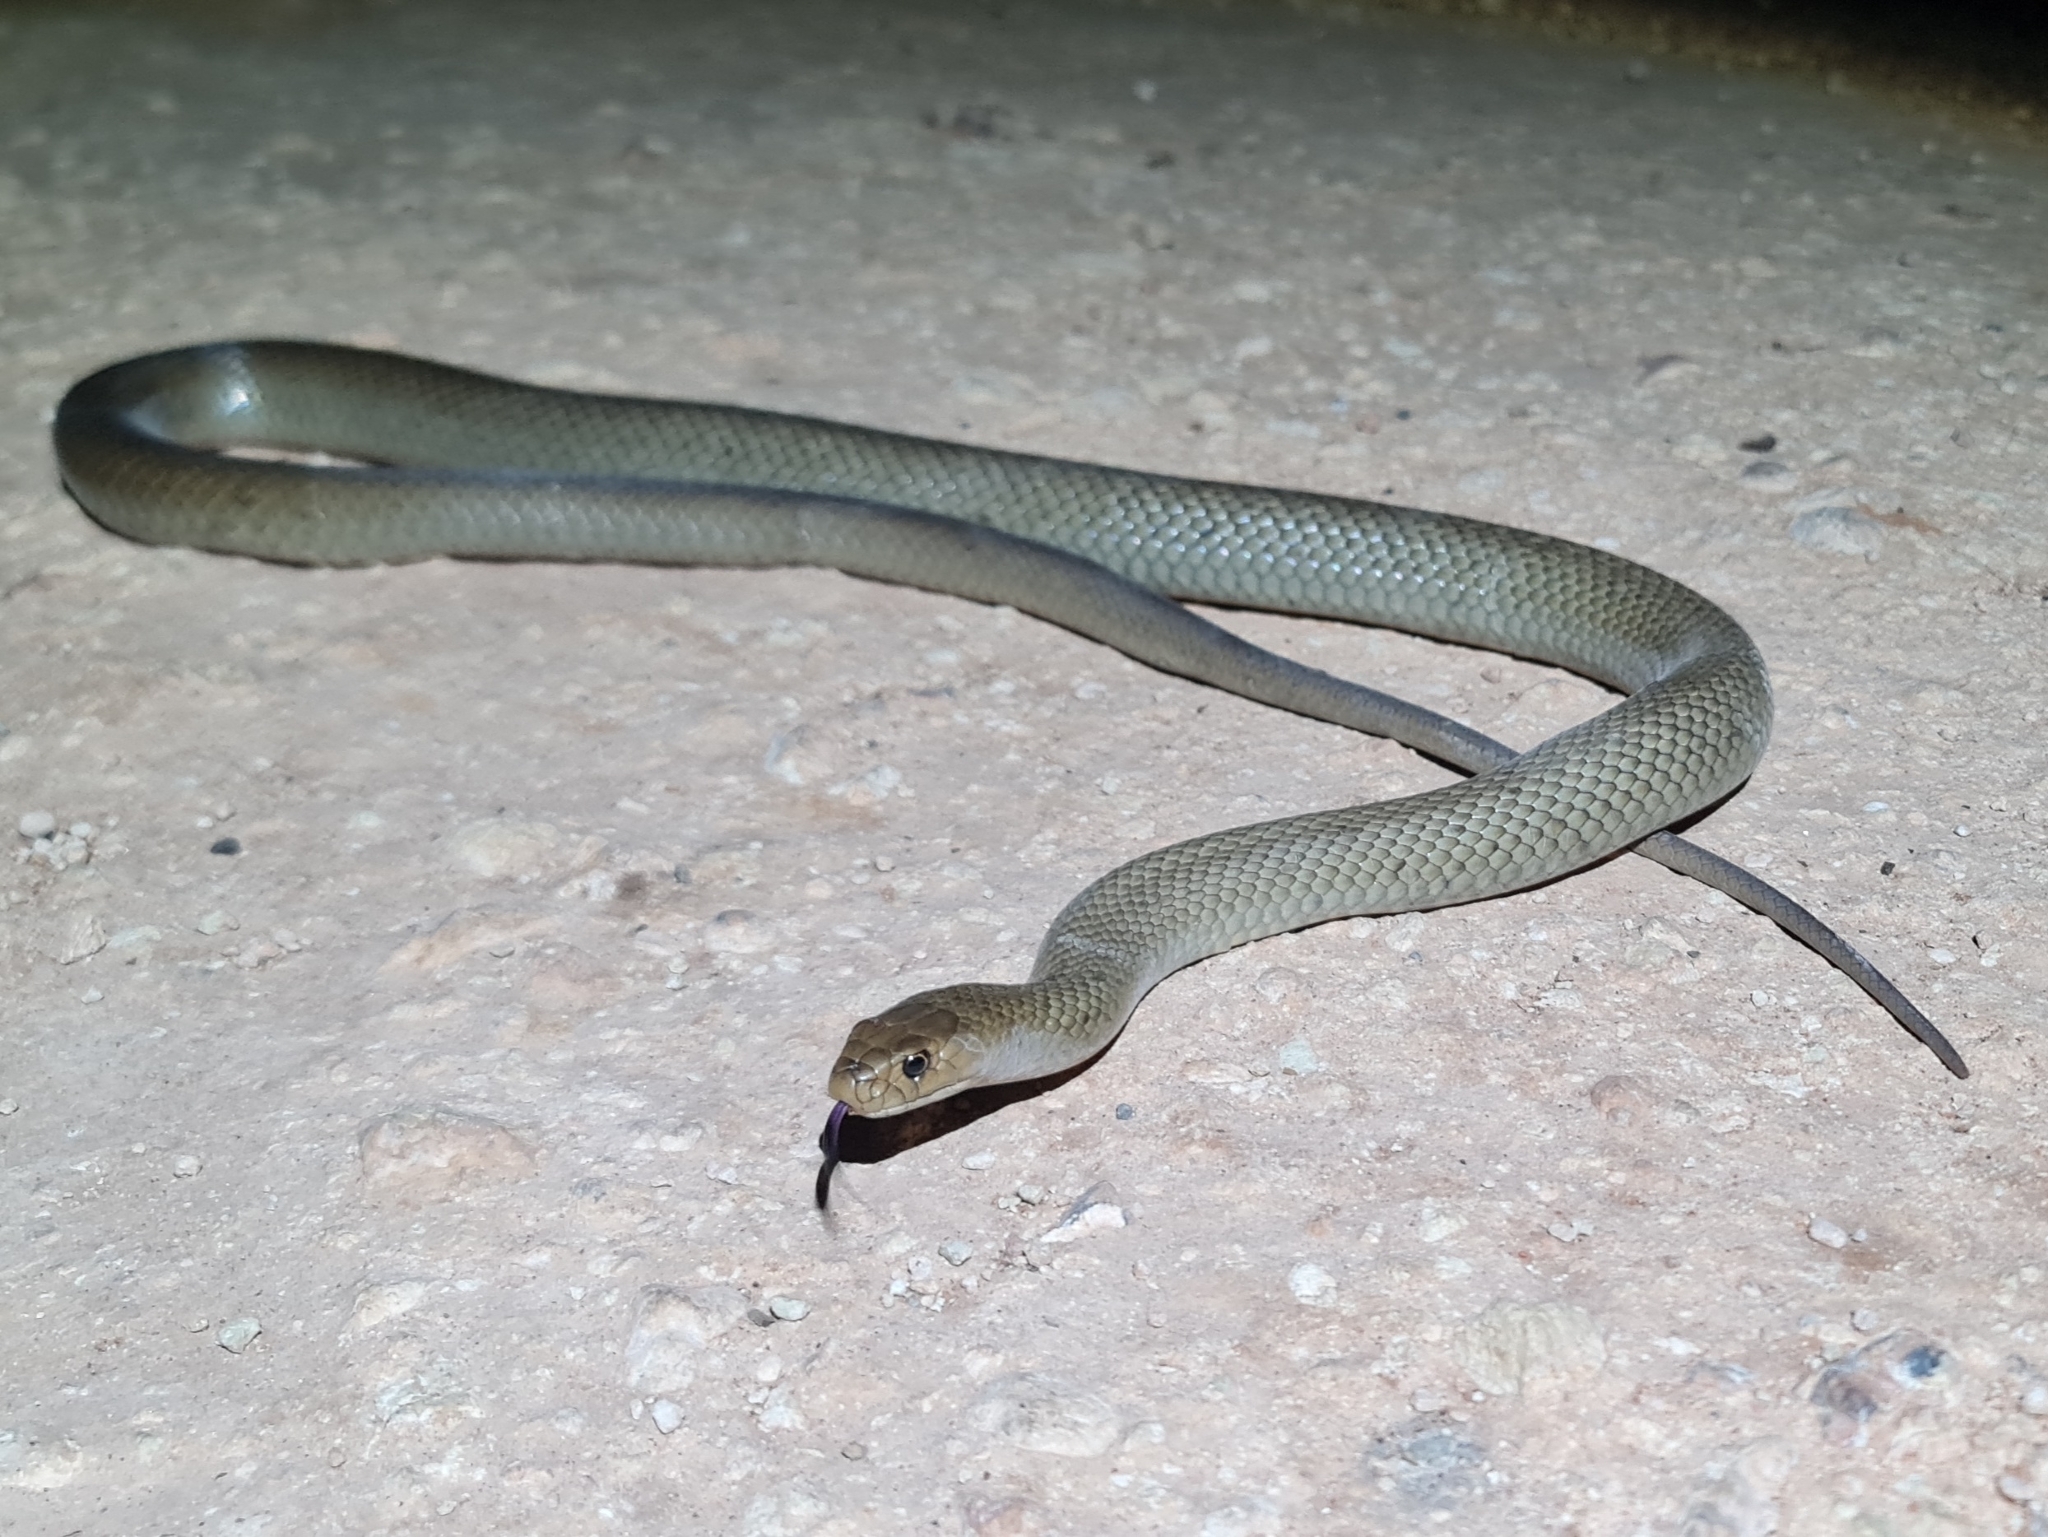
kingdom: Animalia
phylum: Chordata
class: Squamata
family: Elapidae
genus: Pseudonaja
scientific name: Pseudonaja textilis
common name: Eastern brown snake
